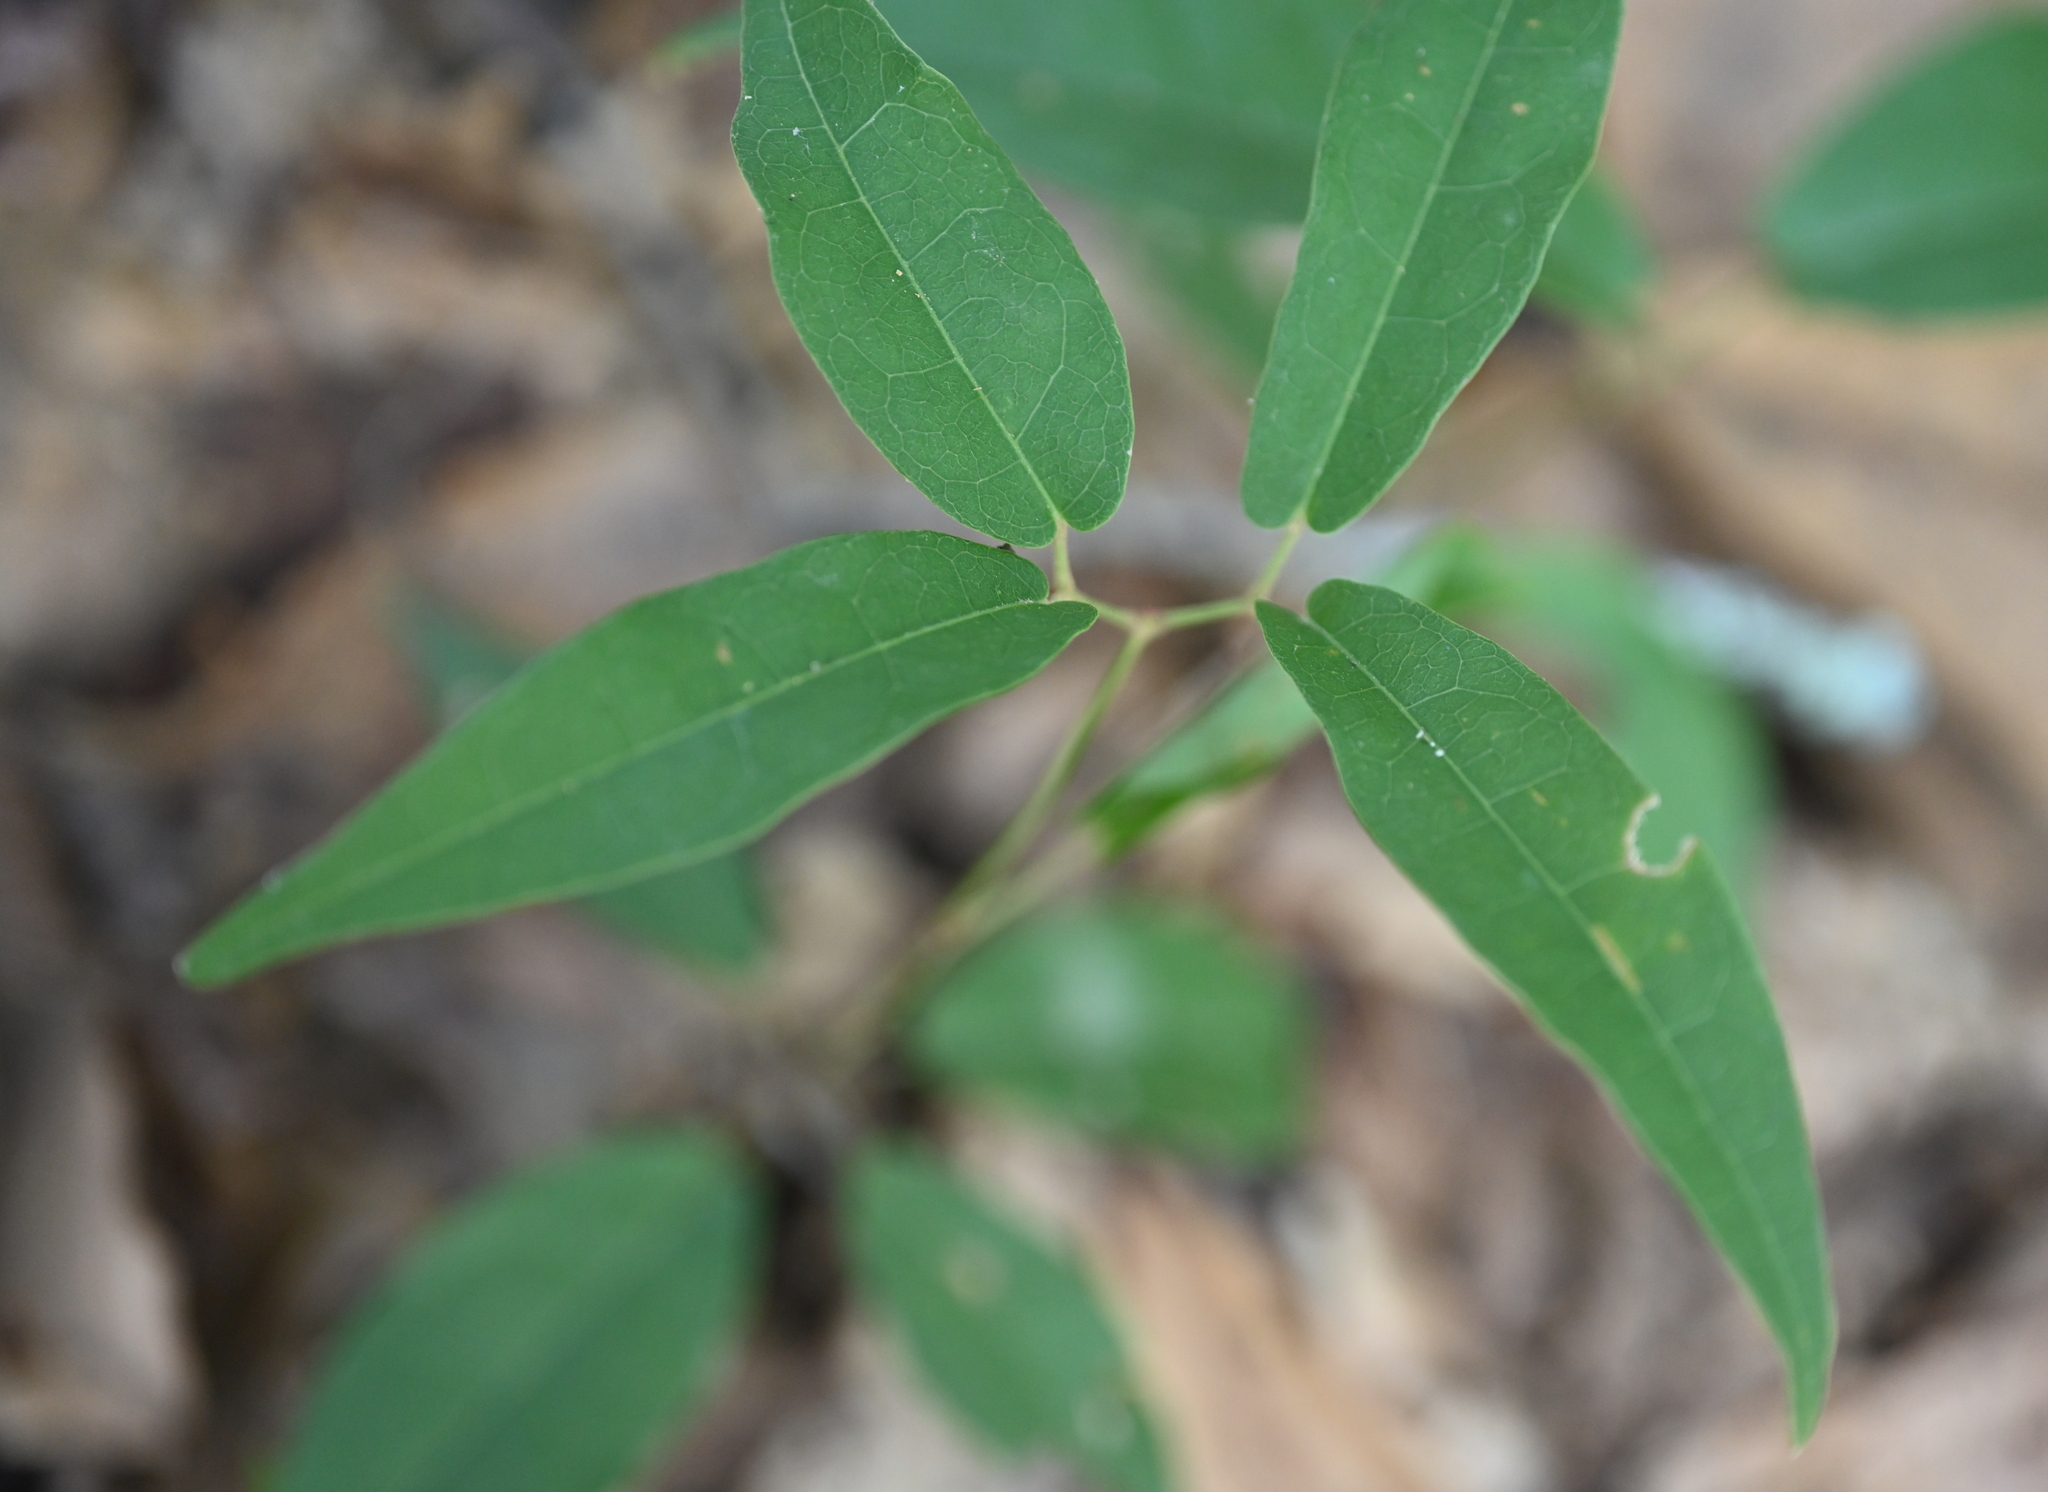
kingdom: Plantae
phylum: Tracheophyta
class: Magnoliopsida
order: Lamiales
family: Bignoniaceae
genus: Bignonia
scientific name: Bignonia capreolata
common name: Crossvine
